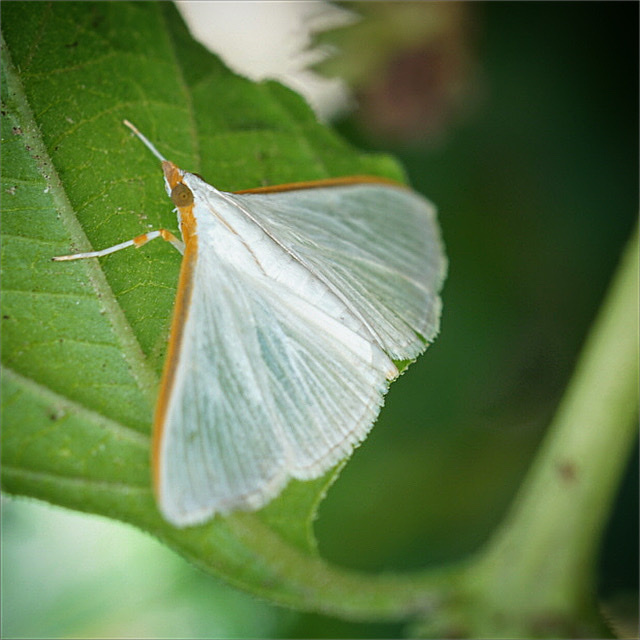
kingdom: Animalia
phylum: Arthropoda
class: Insecta
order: Lepidoptera
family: Crambidae
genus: Diaphania
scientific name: Diaphania costata
